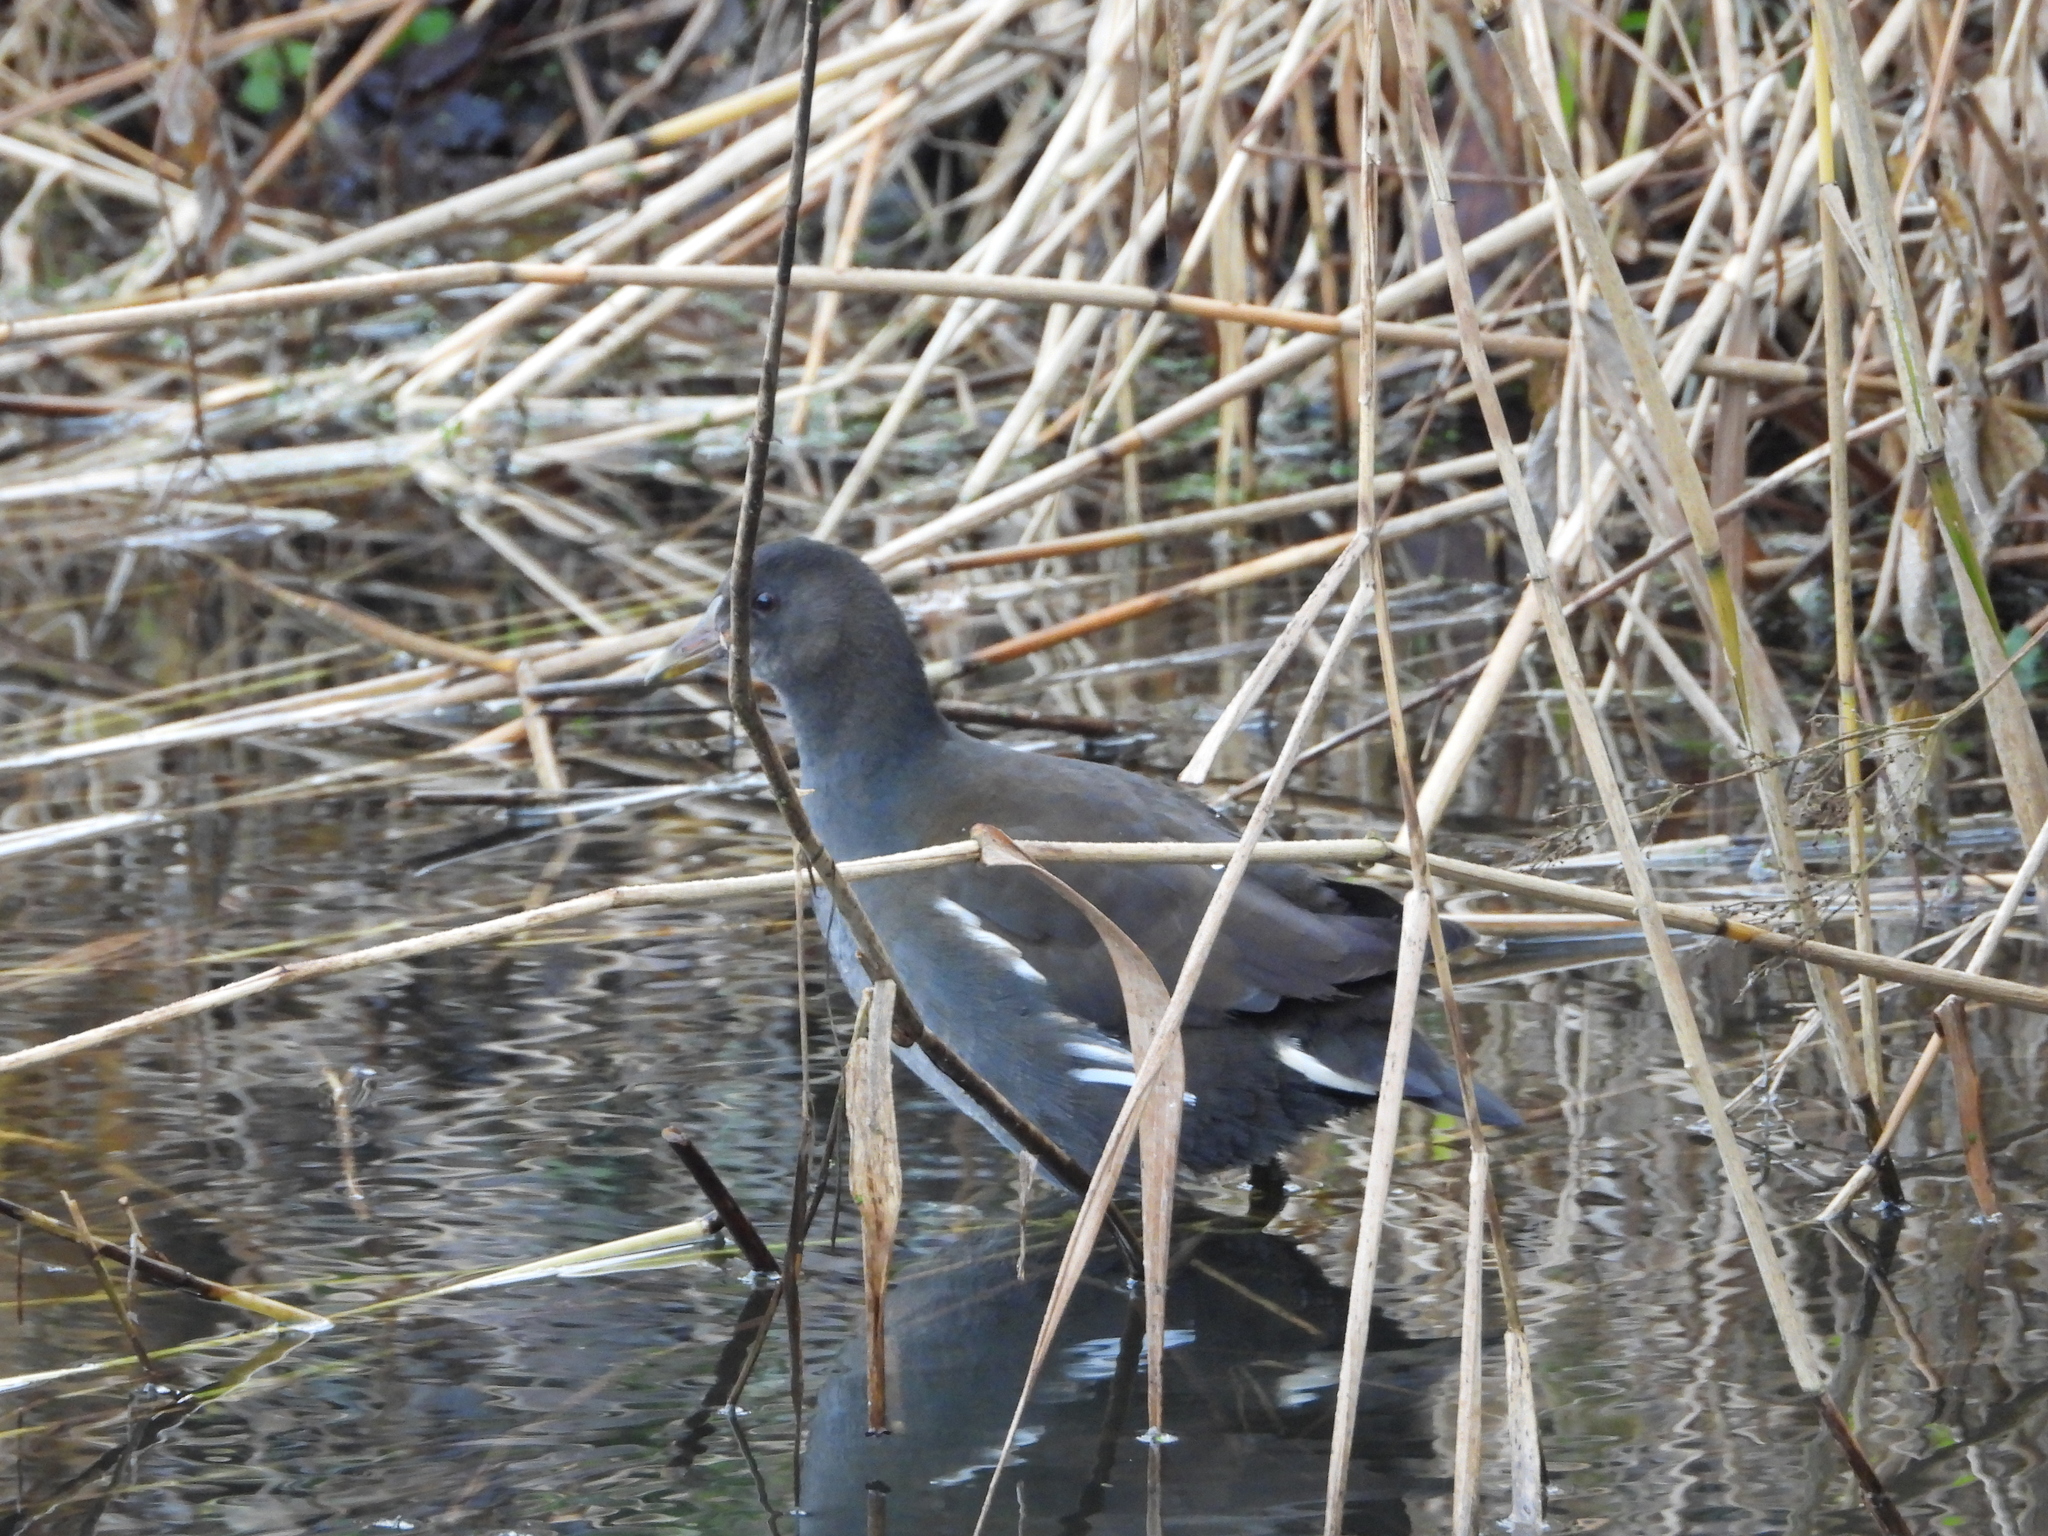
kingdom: Animalia
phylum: Chordata
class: Aves
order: Gruiformes
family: Rallidae
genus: Gallinula
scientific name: Gallinula chloropus
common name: Common moorhen
